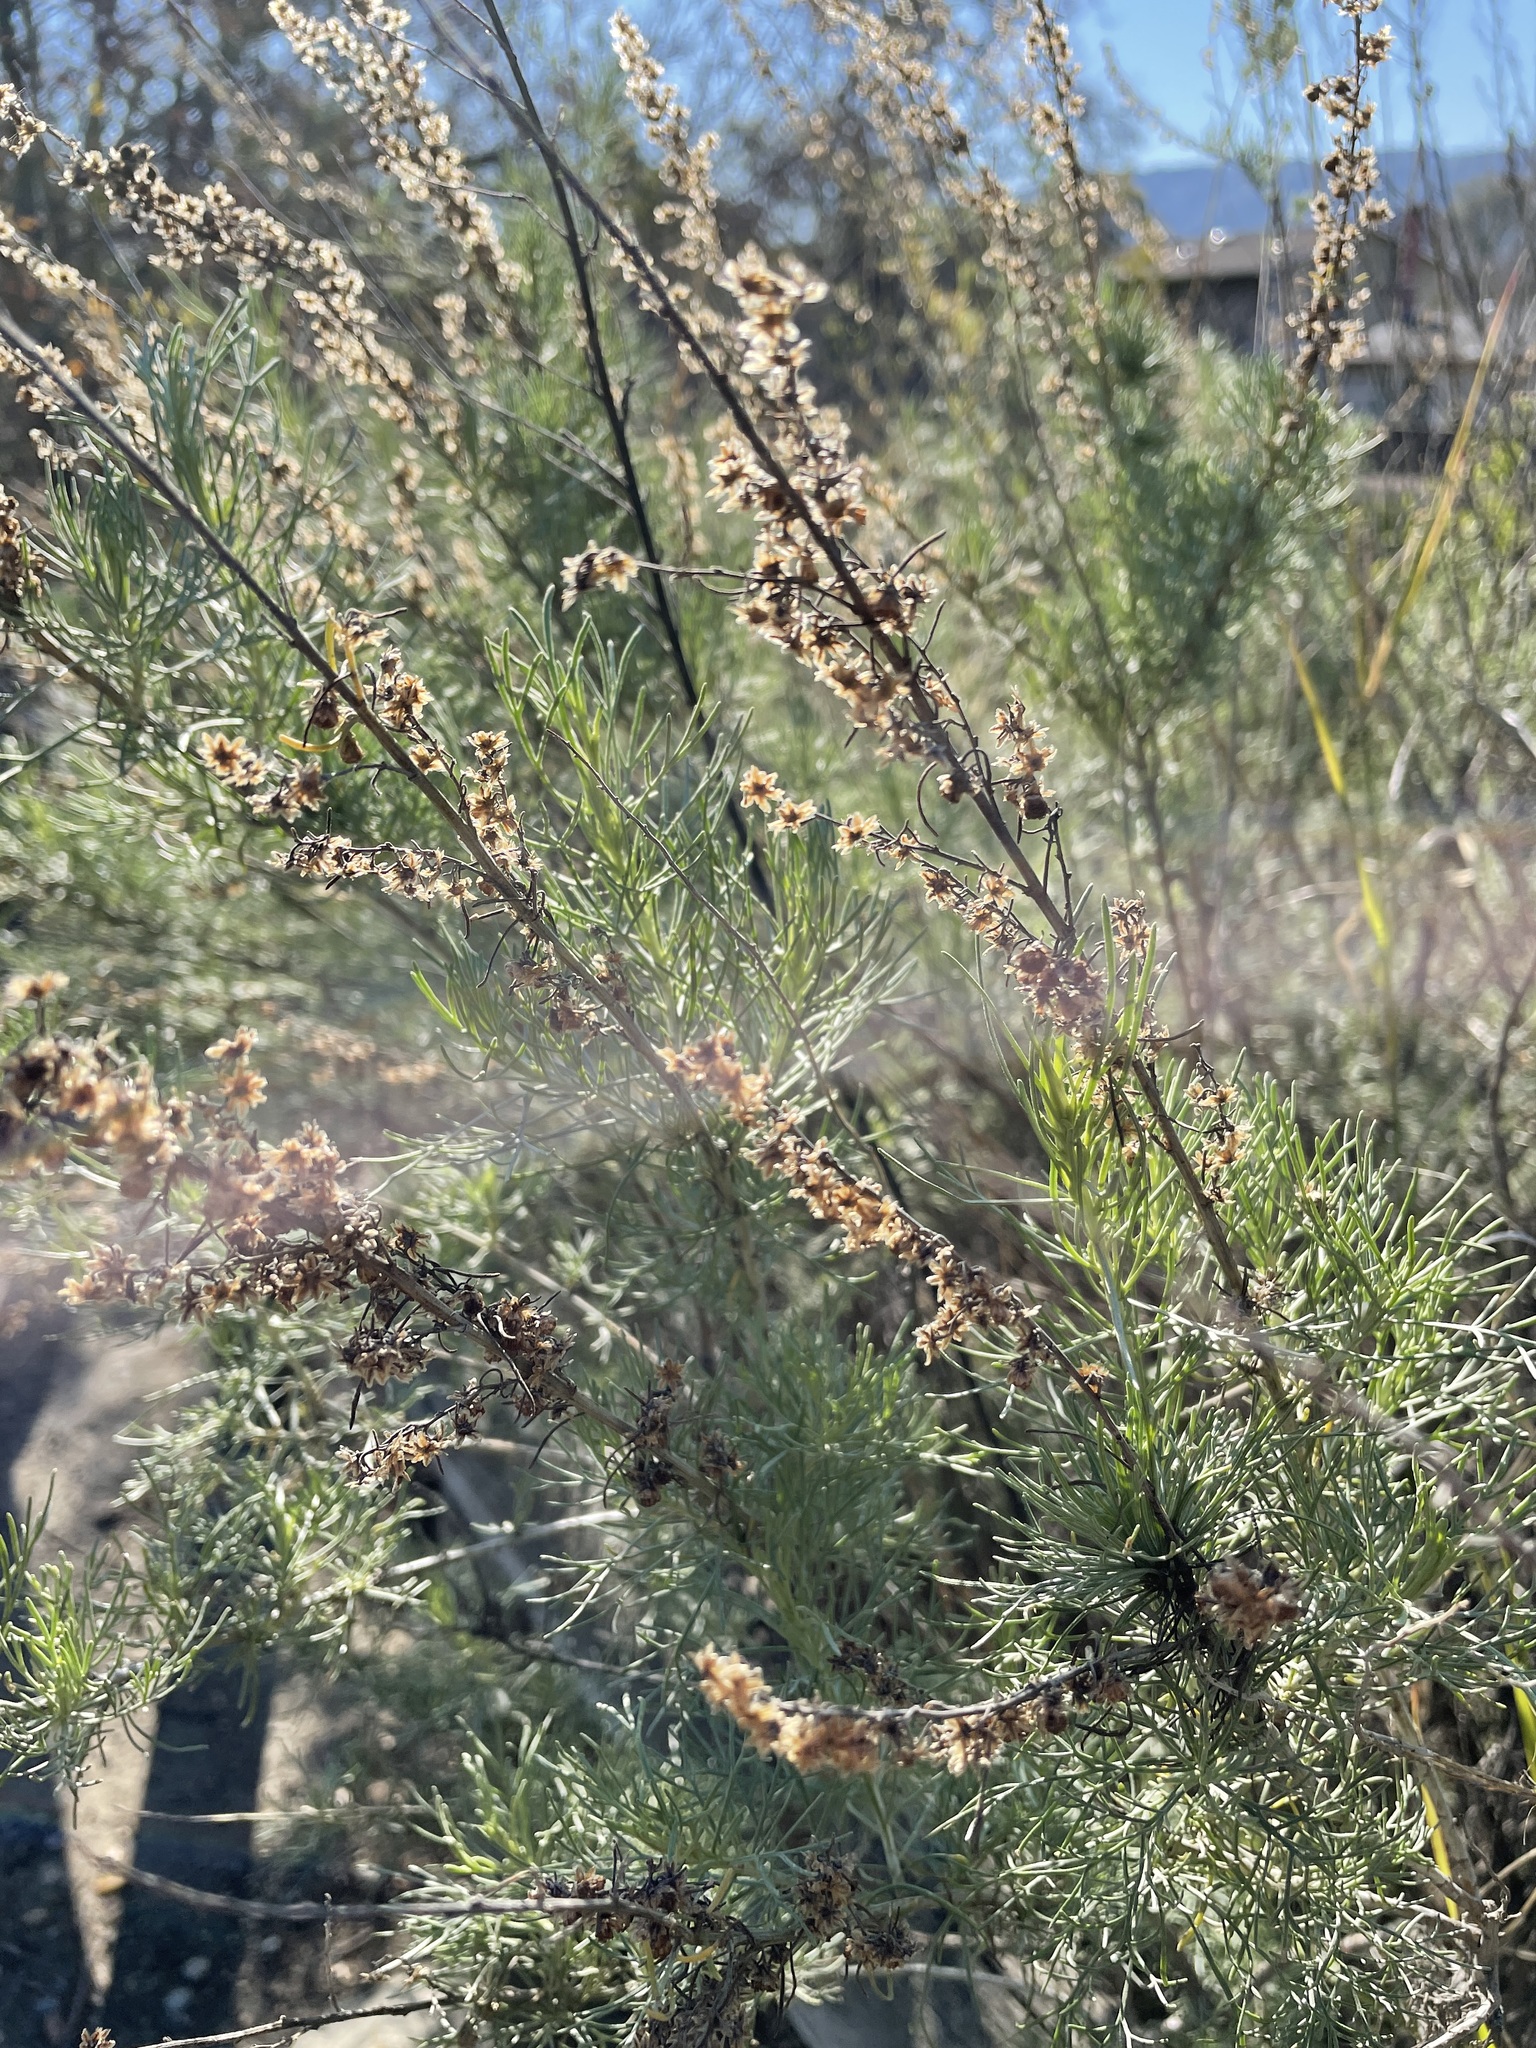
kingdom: Plantae
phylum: Tracheophyta
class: Magnoliopsida
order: Asterales
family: Asteraceae
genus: Artemisia
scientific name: Artemisia californica
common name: California sagebrush
